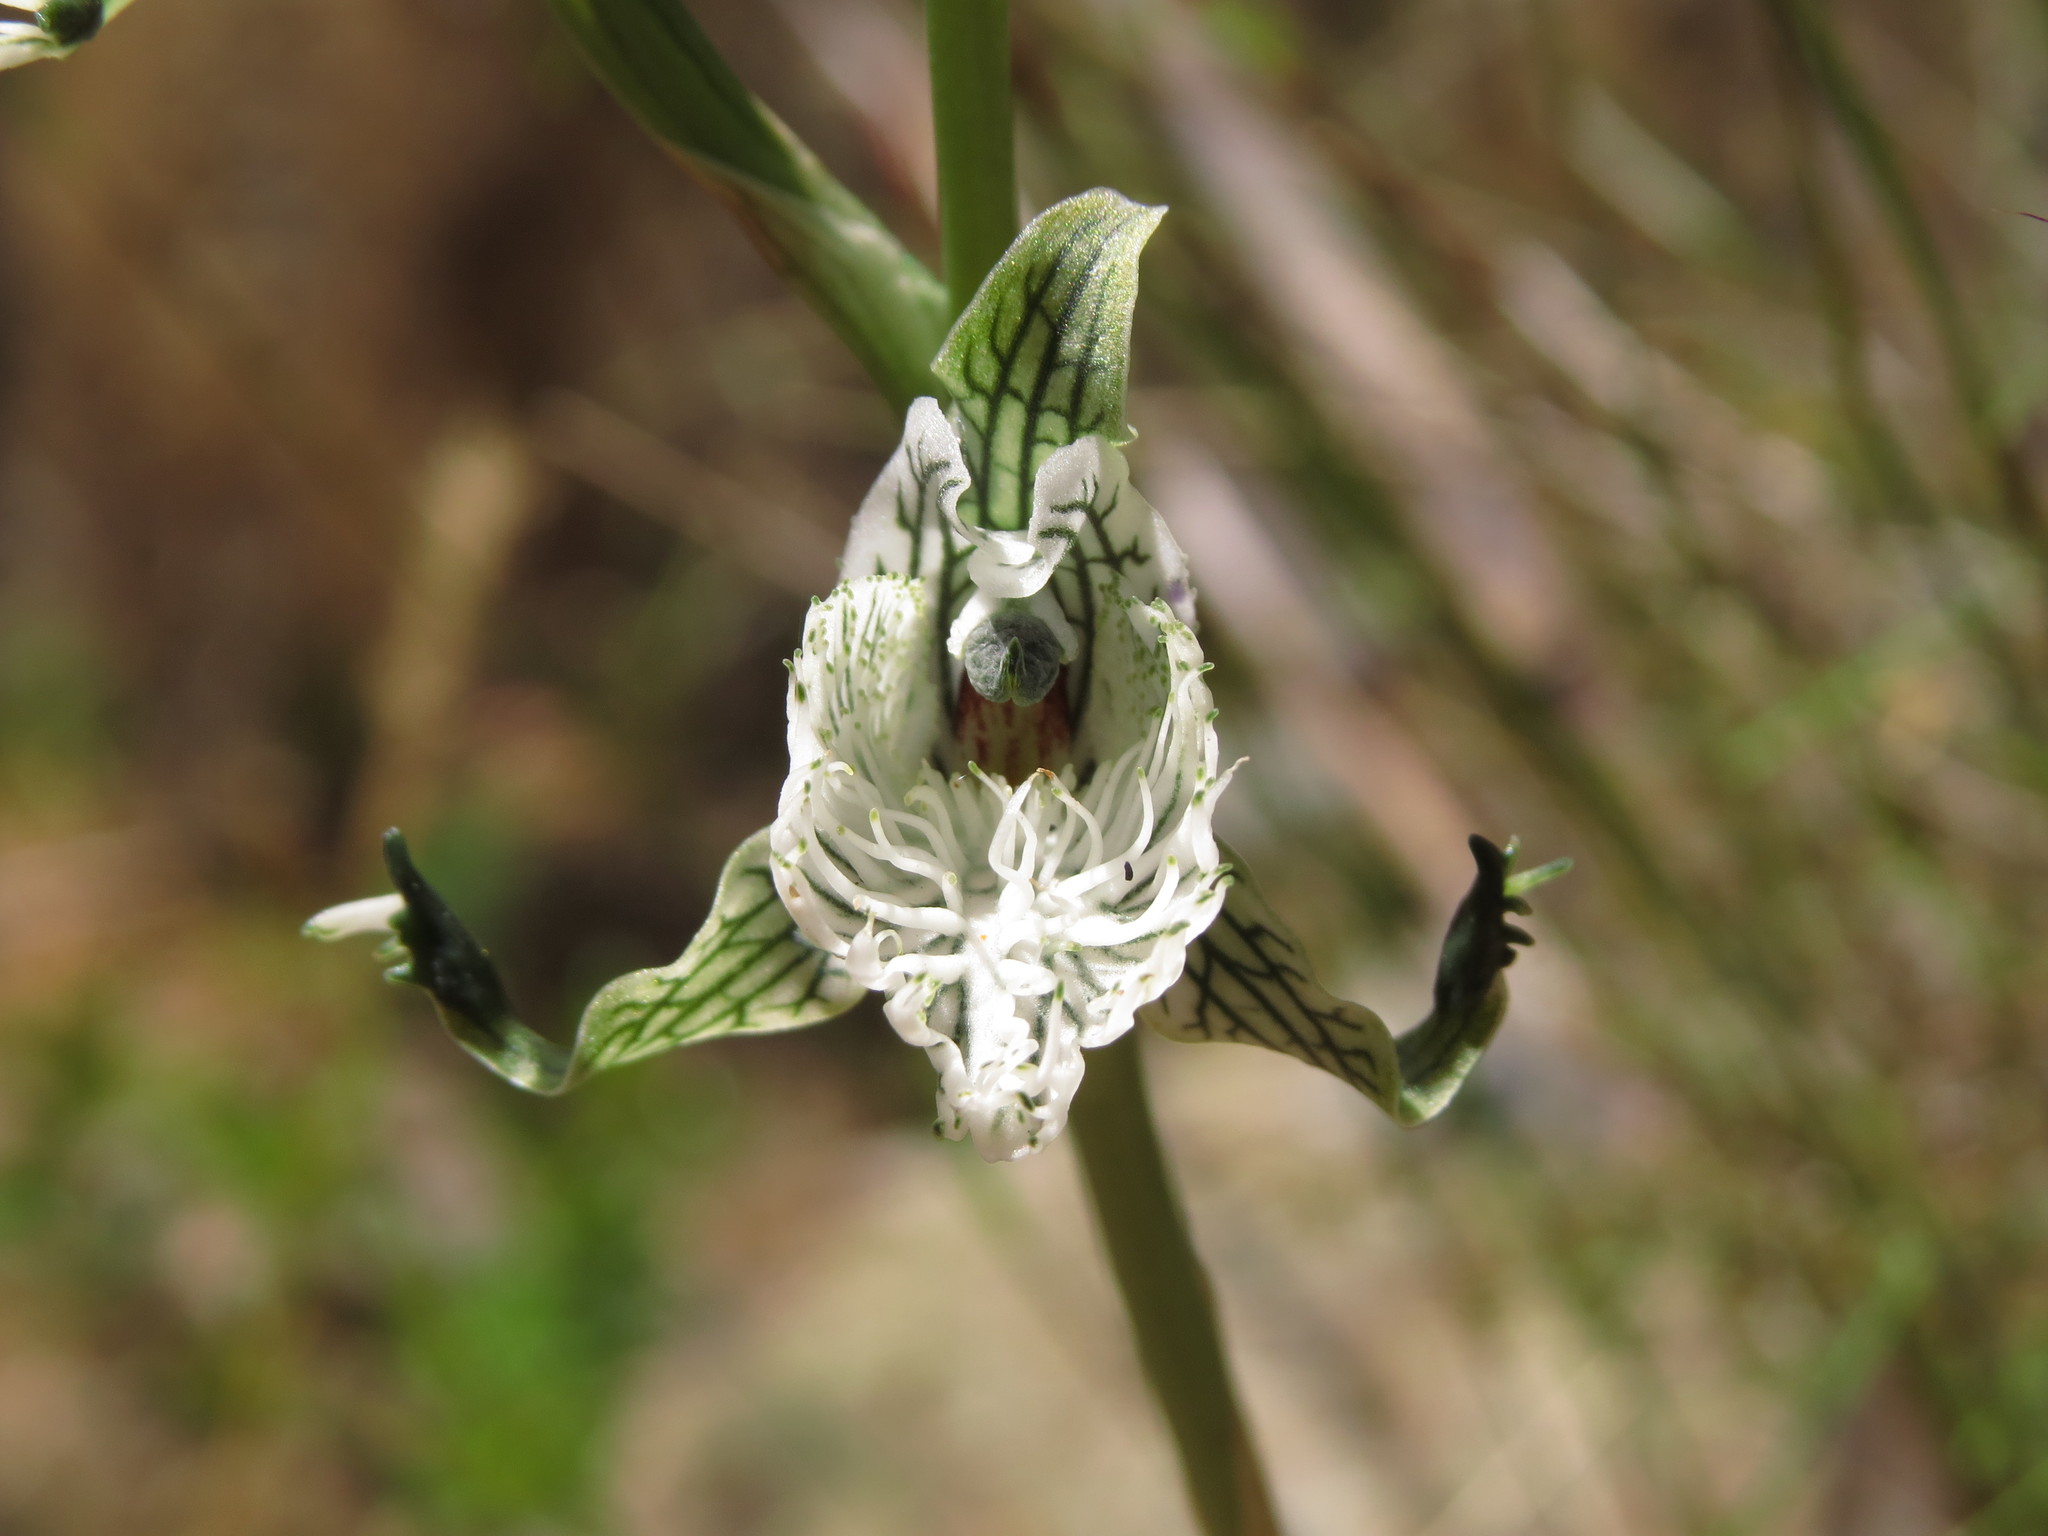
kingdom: Plantae
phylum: Tracheophyta
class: Liliopsida
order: Asparagales
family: Orchidaceae
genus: Chloraea
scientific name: Chloraea prodigiosa
